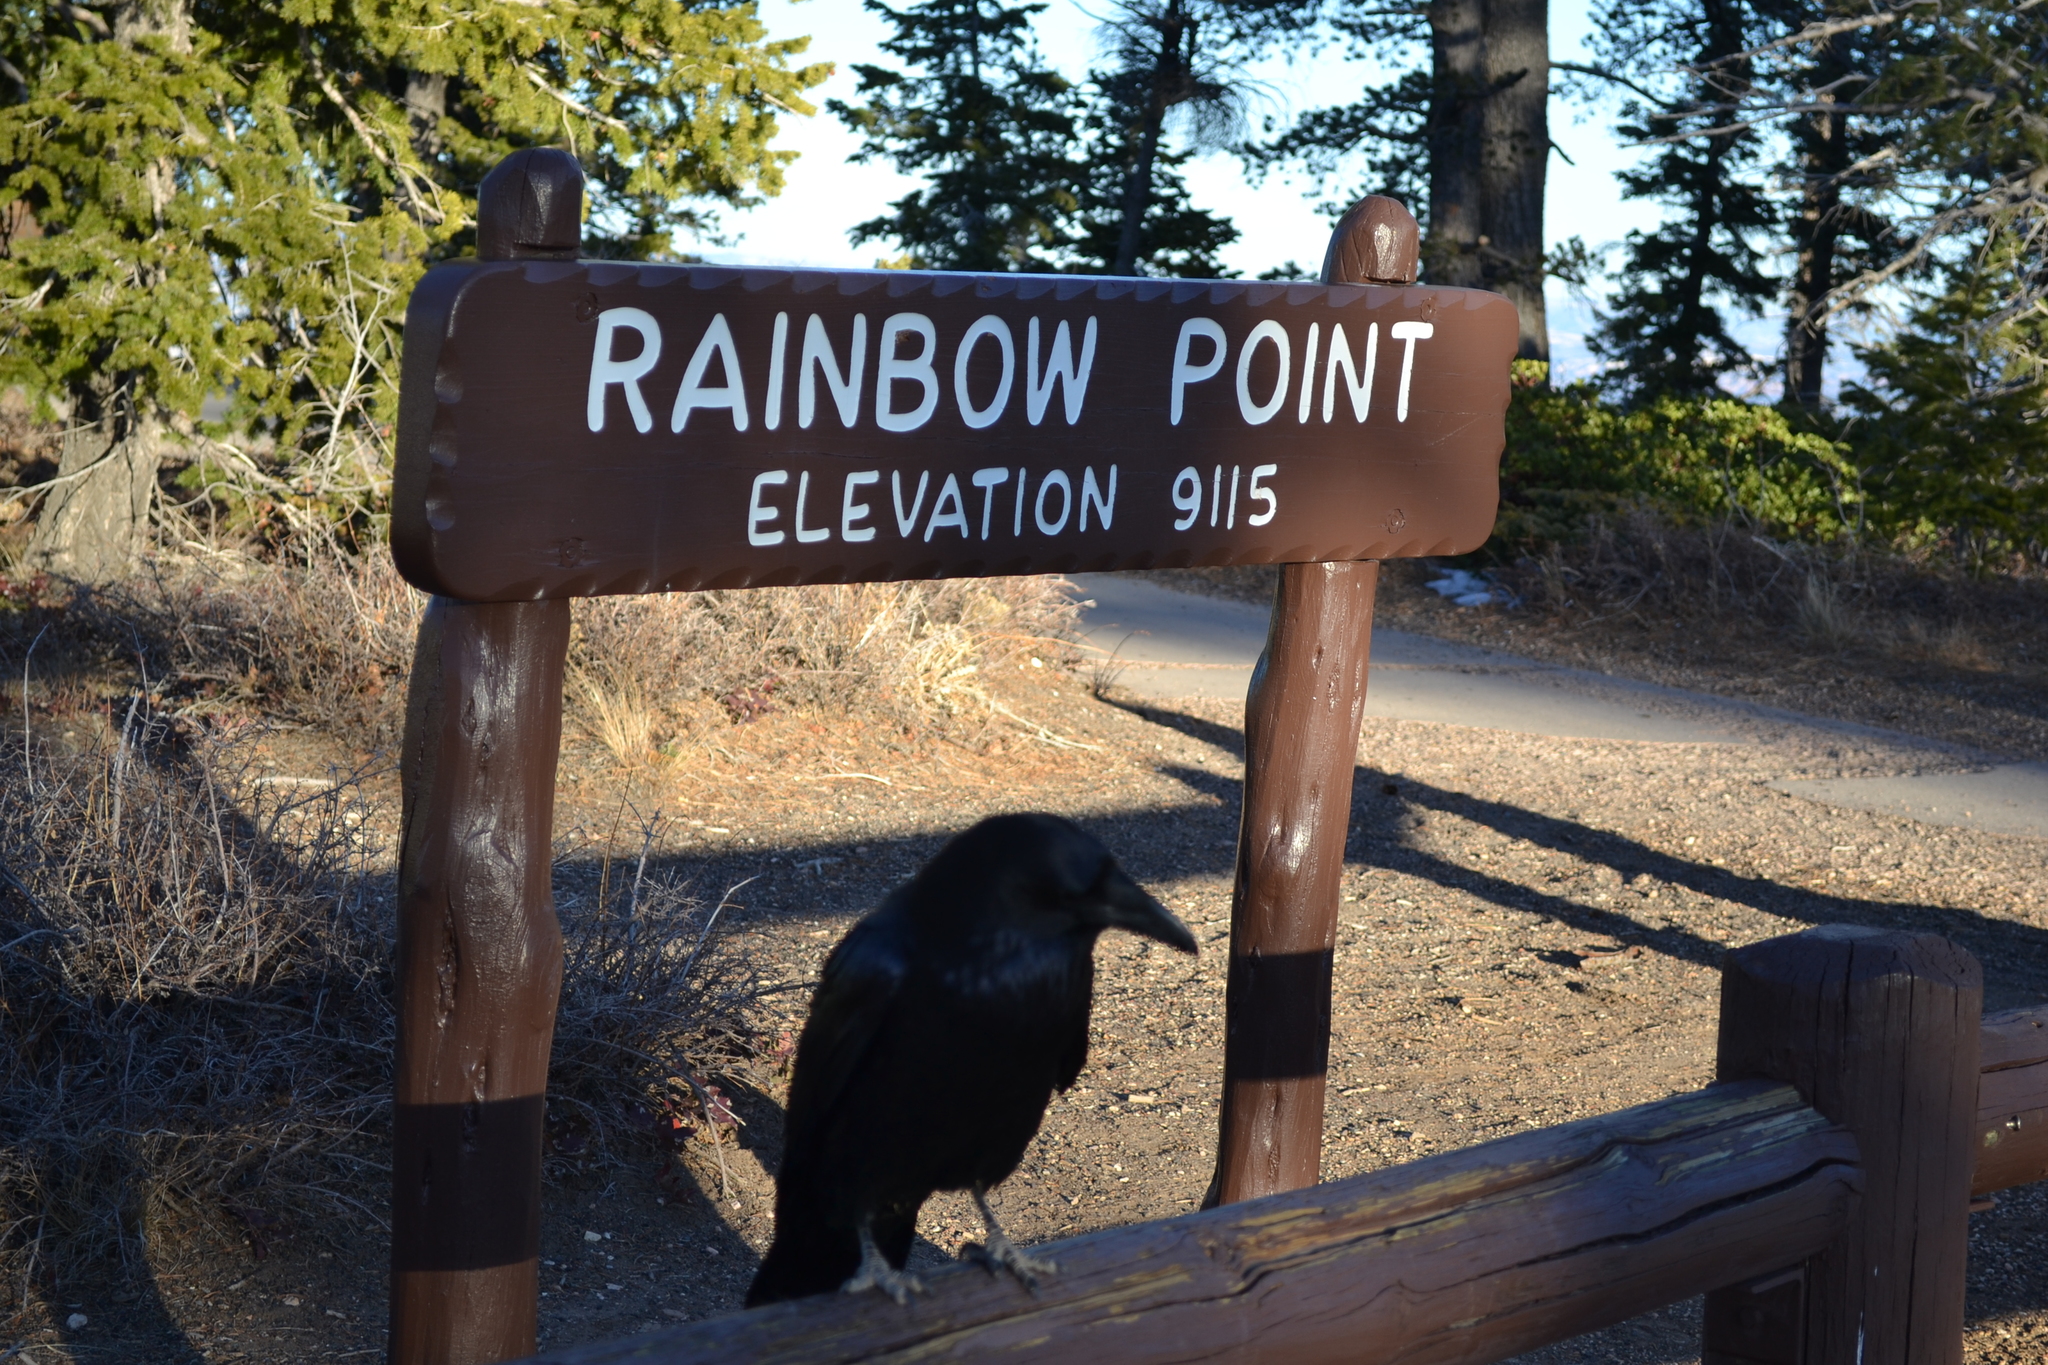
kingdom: Animalia
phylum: Chordata
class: Aves
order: Passeriformes
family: Corvidae
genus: Corvus
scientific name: Corvus corax
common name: Common raven
